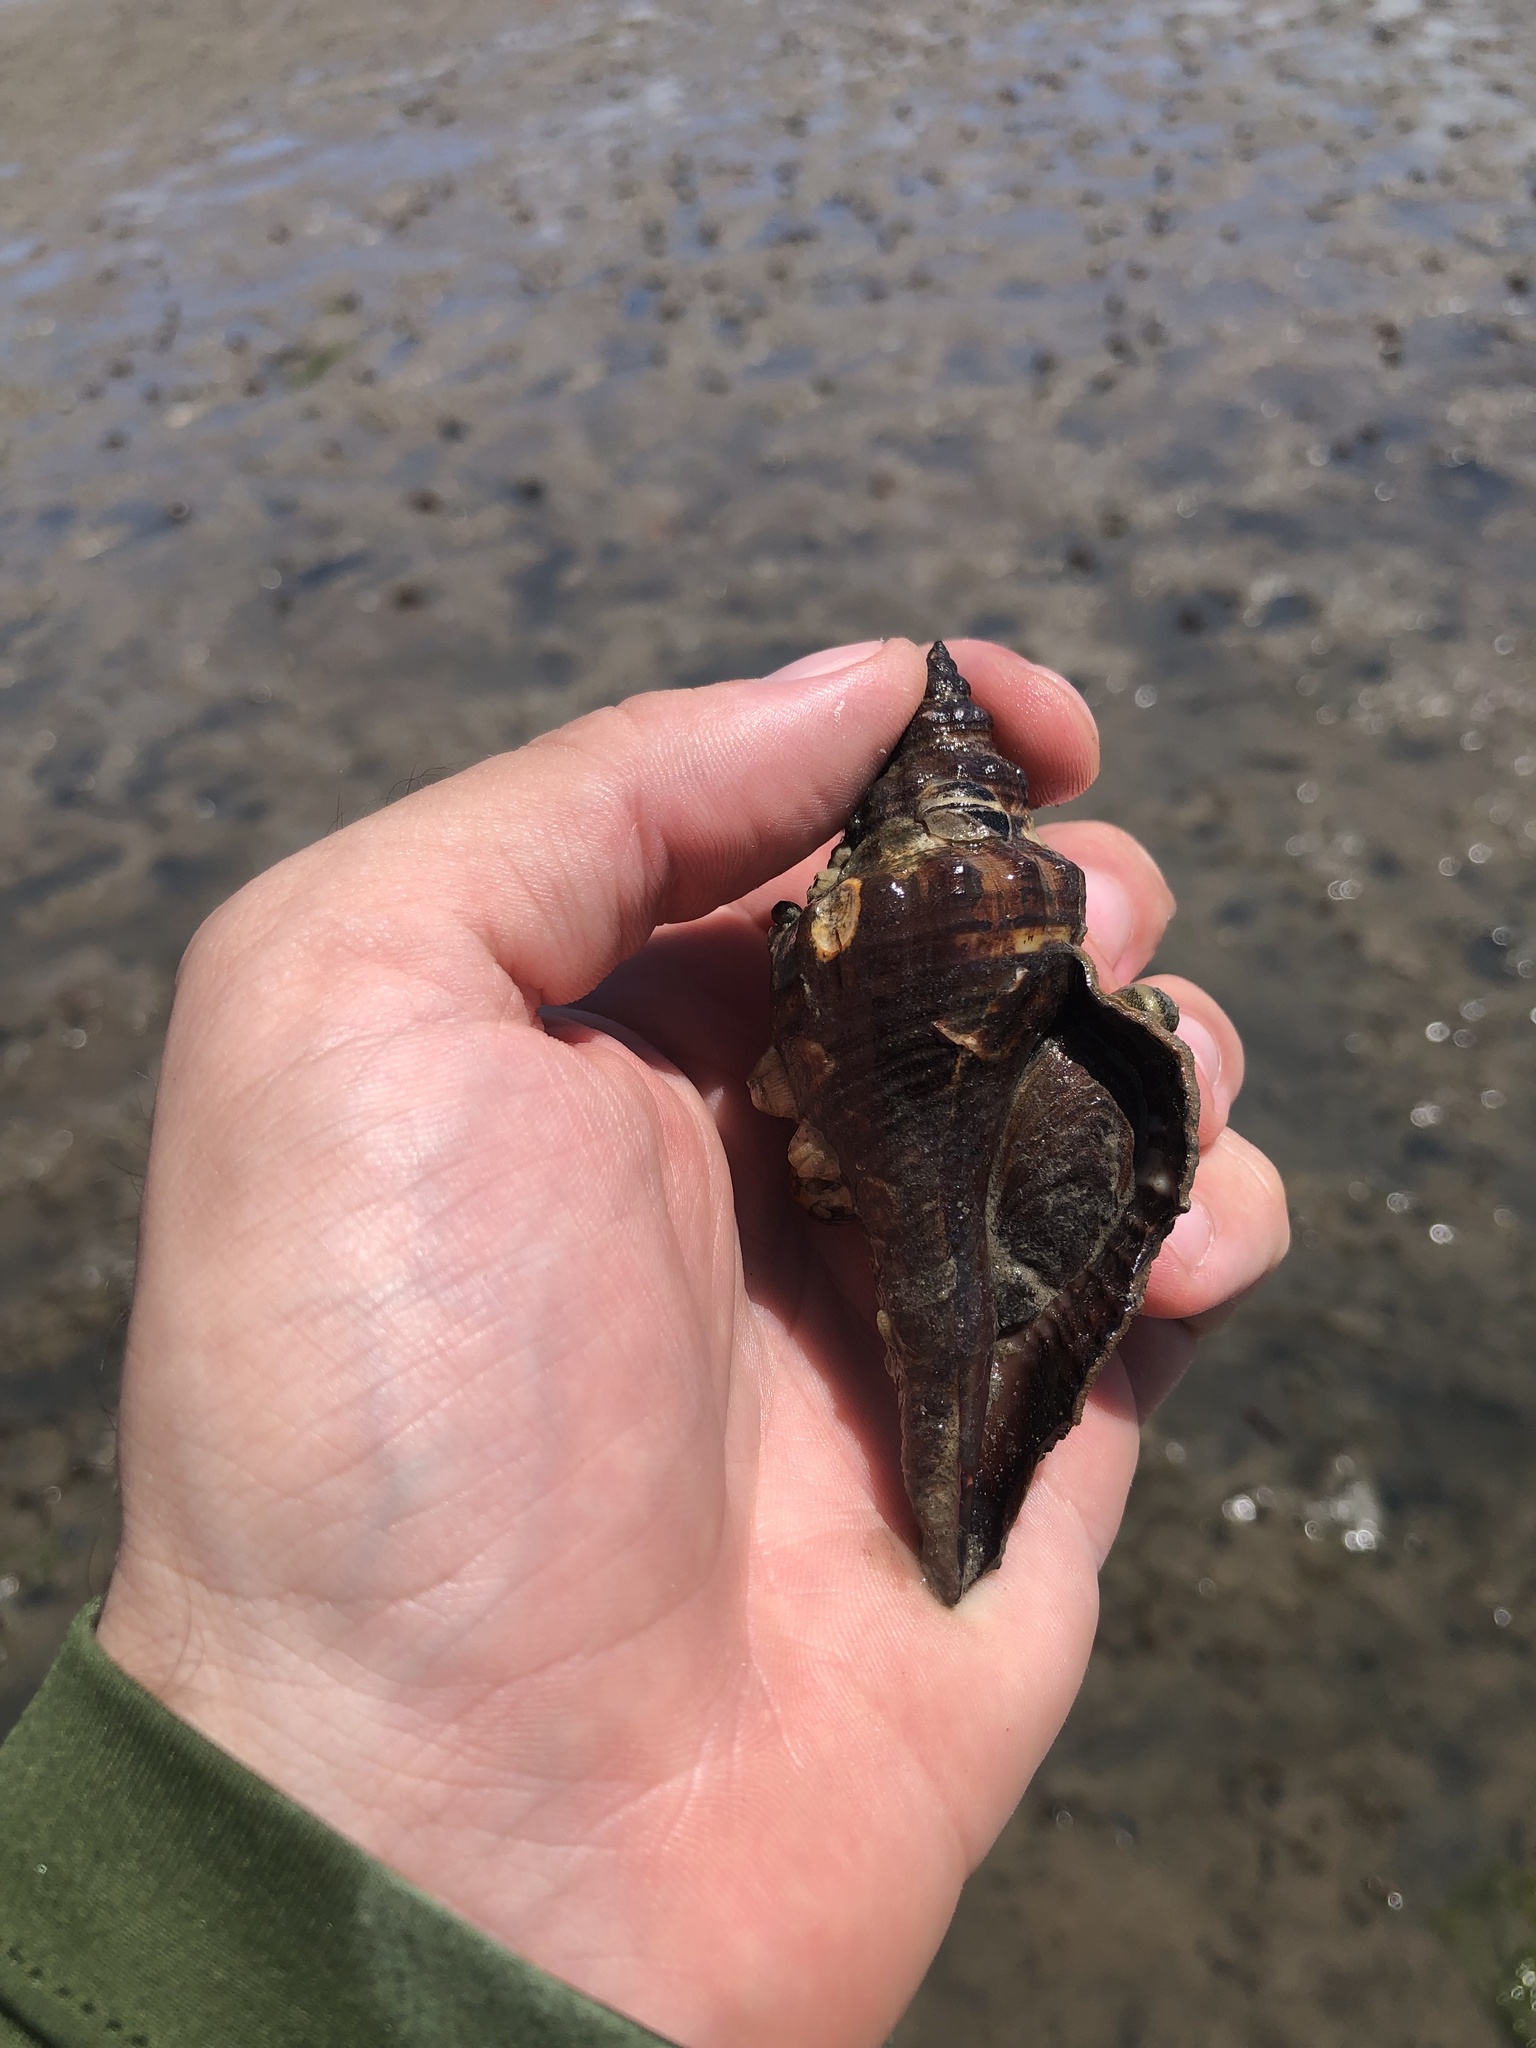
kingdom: Animalia
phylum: Mollusca
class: Gastropoda
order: Neogastropoda
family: Melongenidae
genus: Pugilina
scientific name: Pugilina tupiniquim
